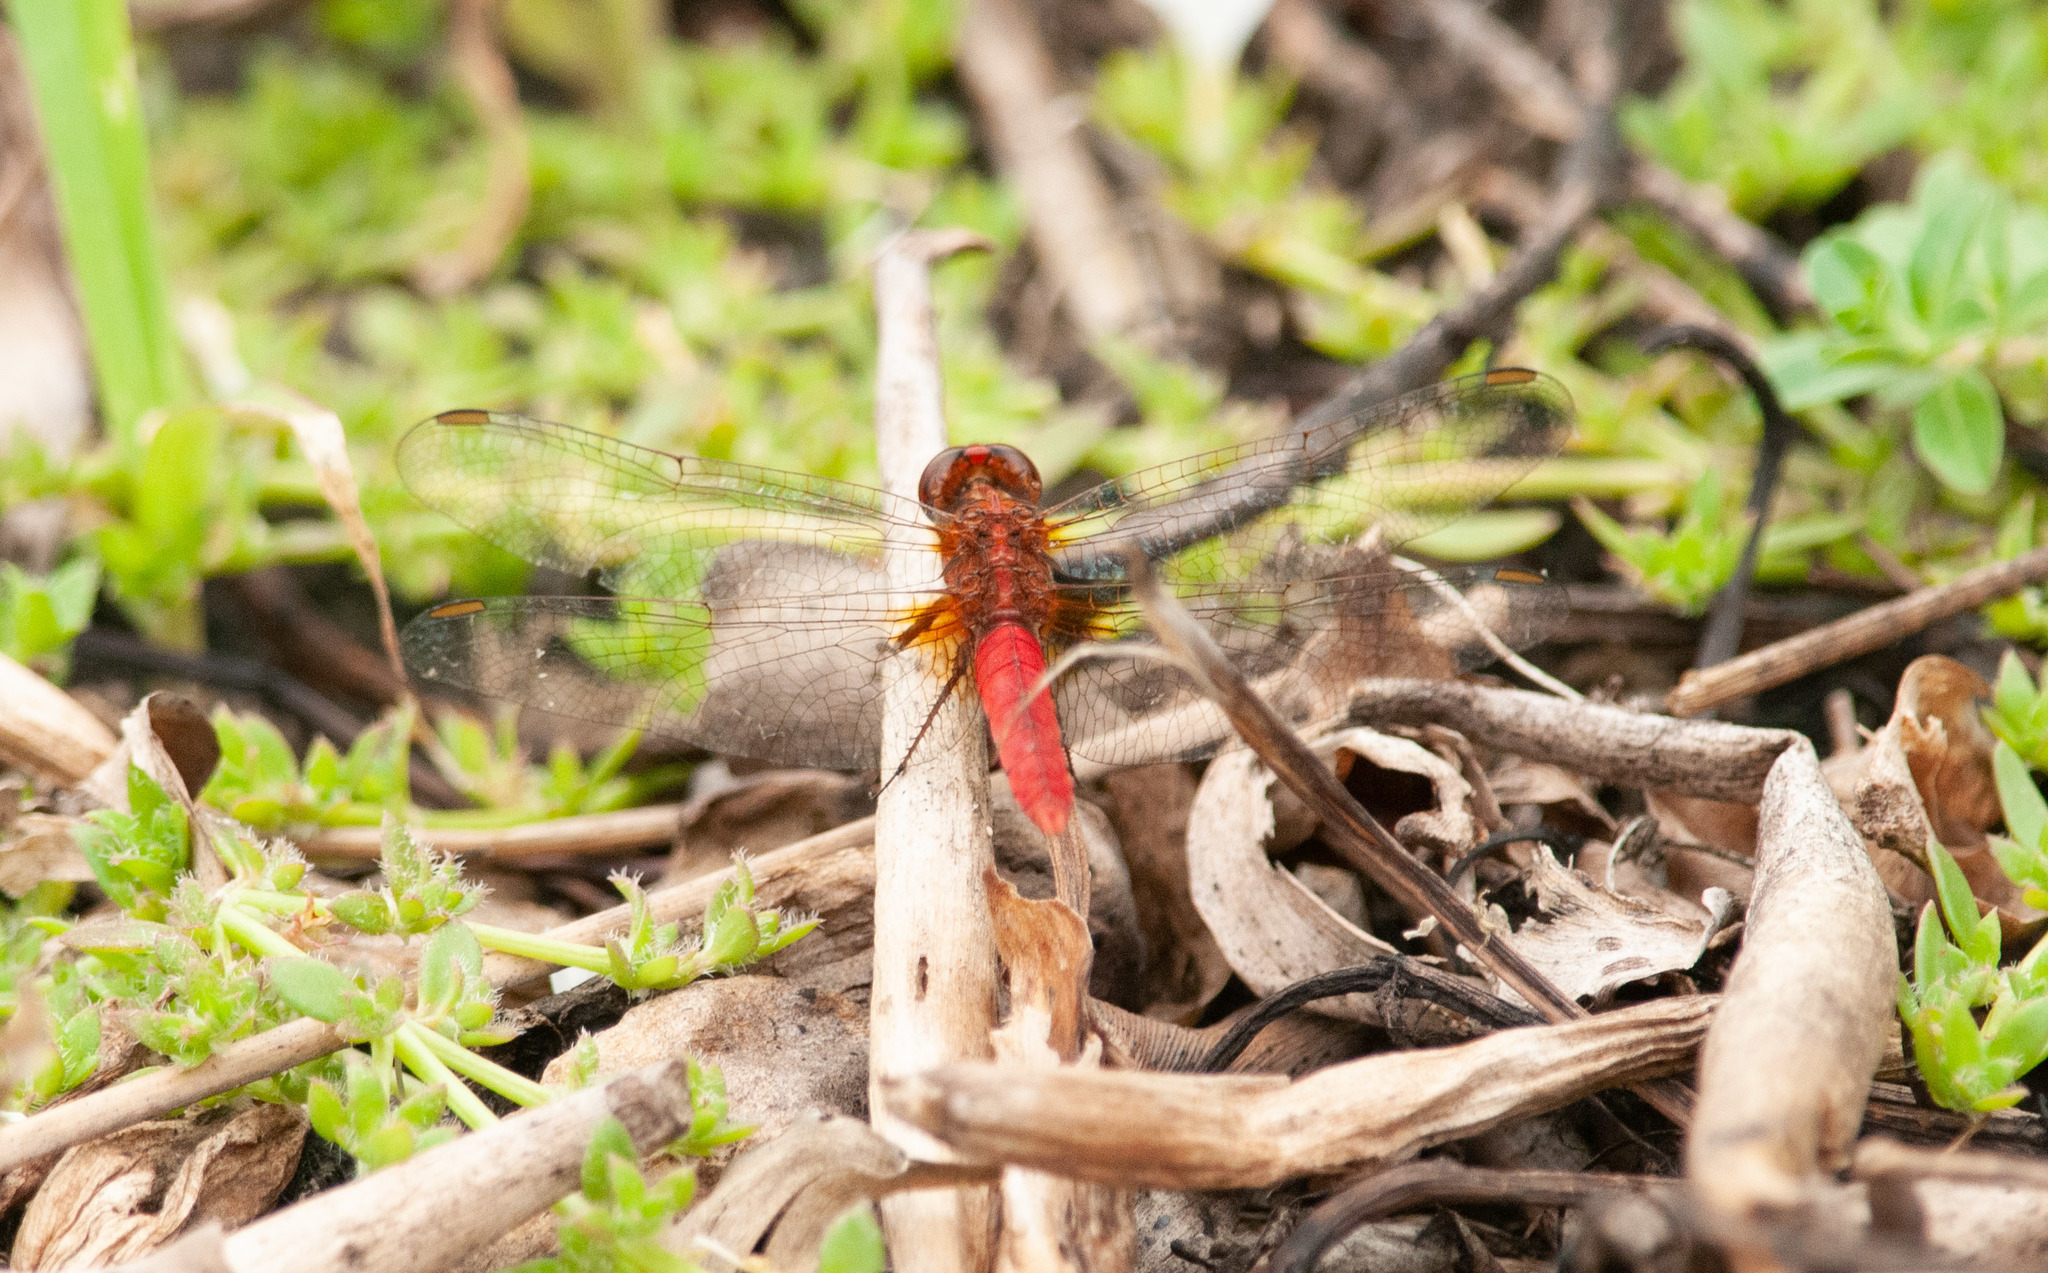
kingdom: Animalia
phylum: Arthropoda
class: Insecta
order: Odonata
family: Libellulidae
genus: Rhodothemis
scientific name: Rhodothemis lieftincki
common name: Red arrow
